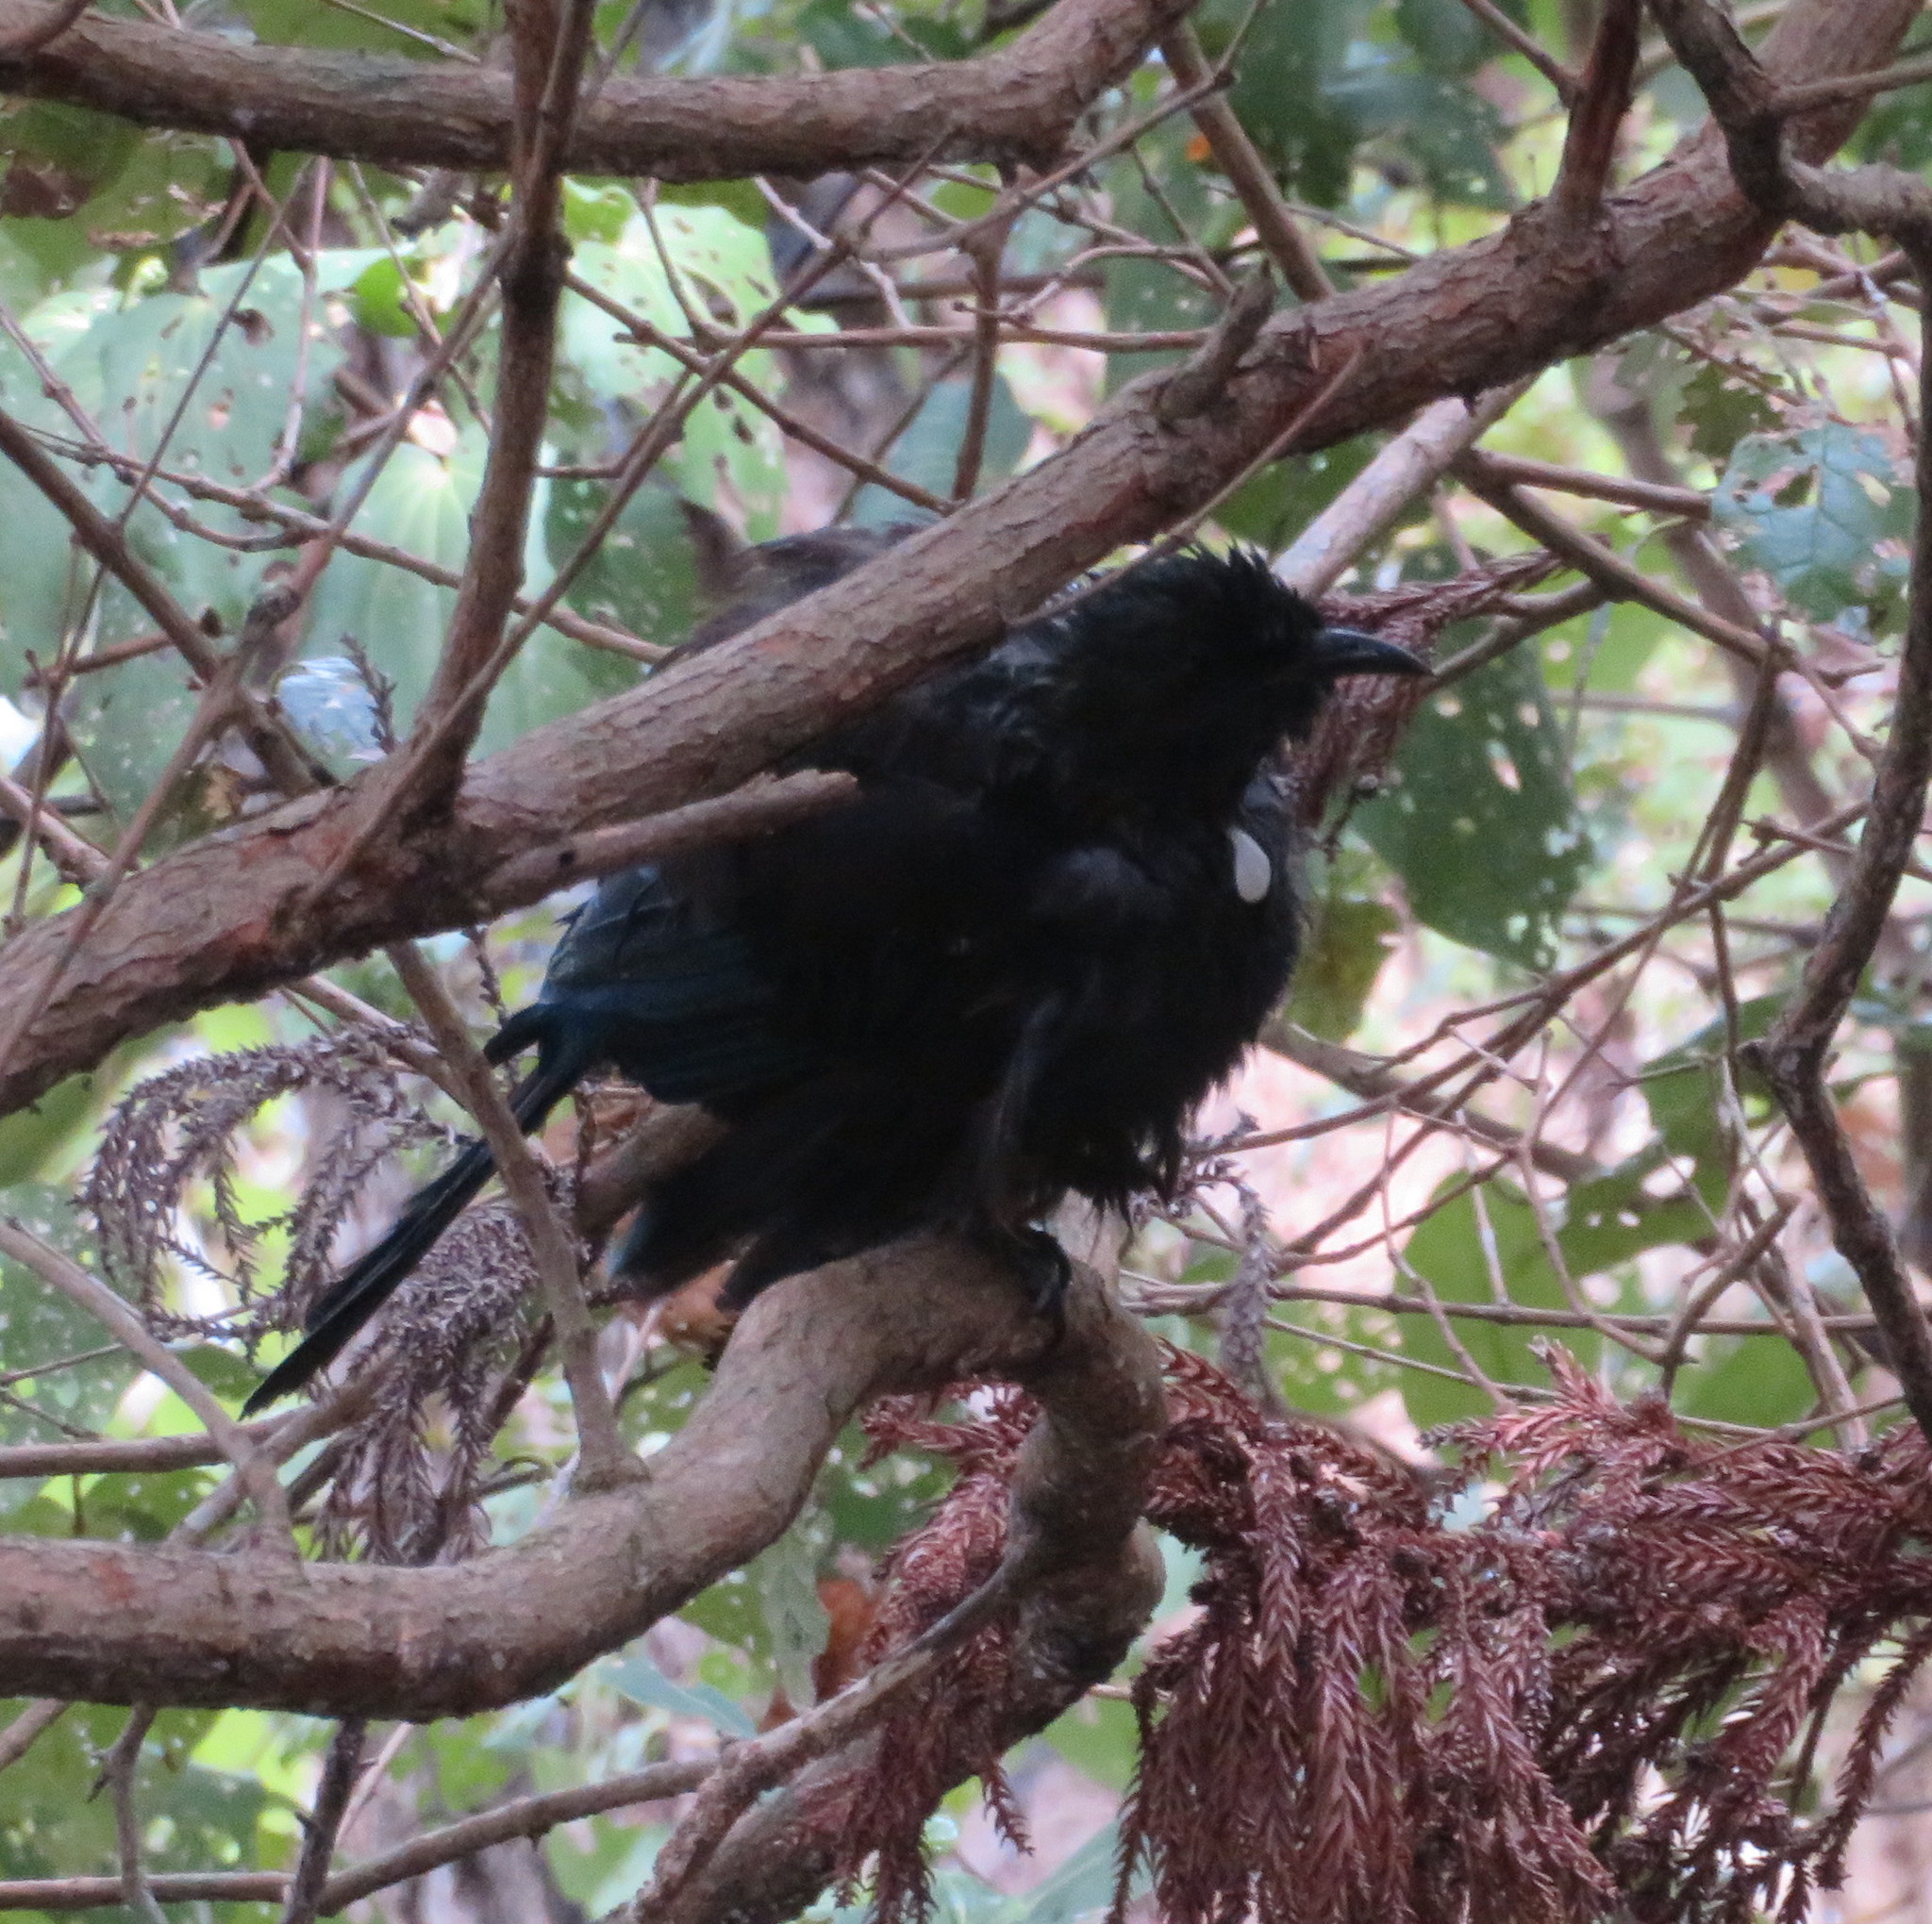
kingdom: Animalia
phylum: Chordata
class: Aves
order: Passeriformes
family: Meliphagidae
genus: Prosthemadera
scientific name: Prosthemadera novaeseelandiae
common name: Tui
